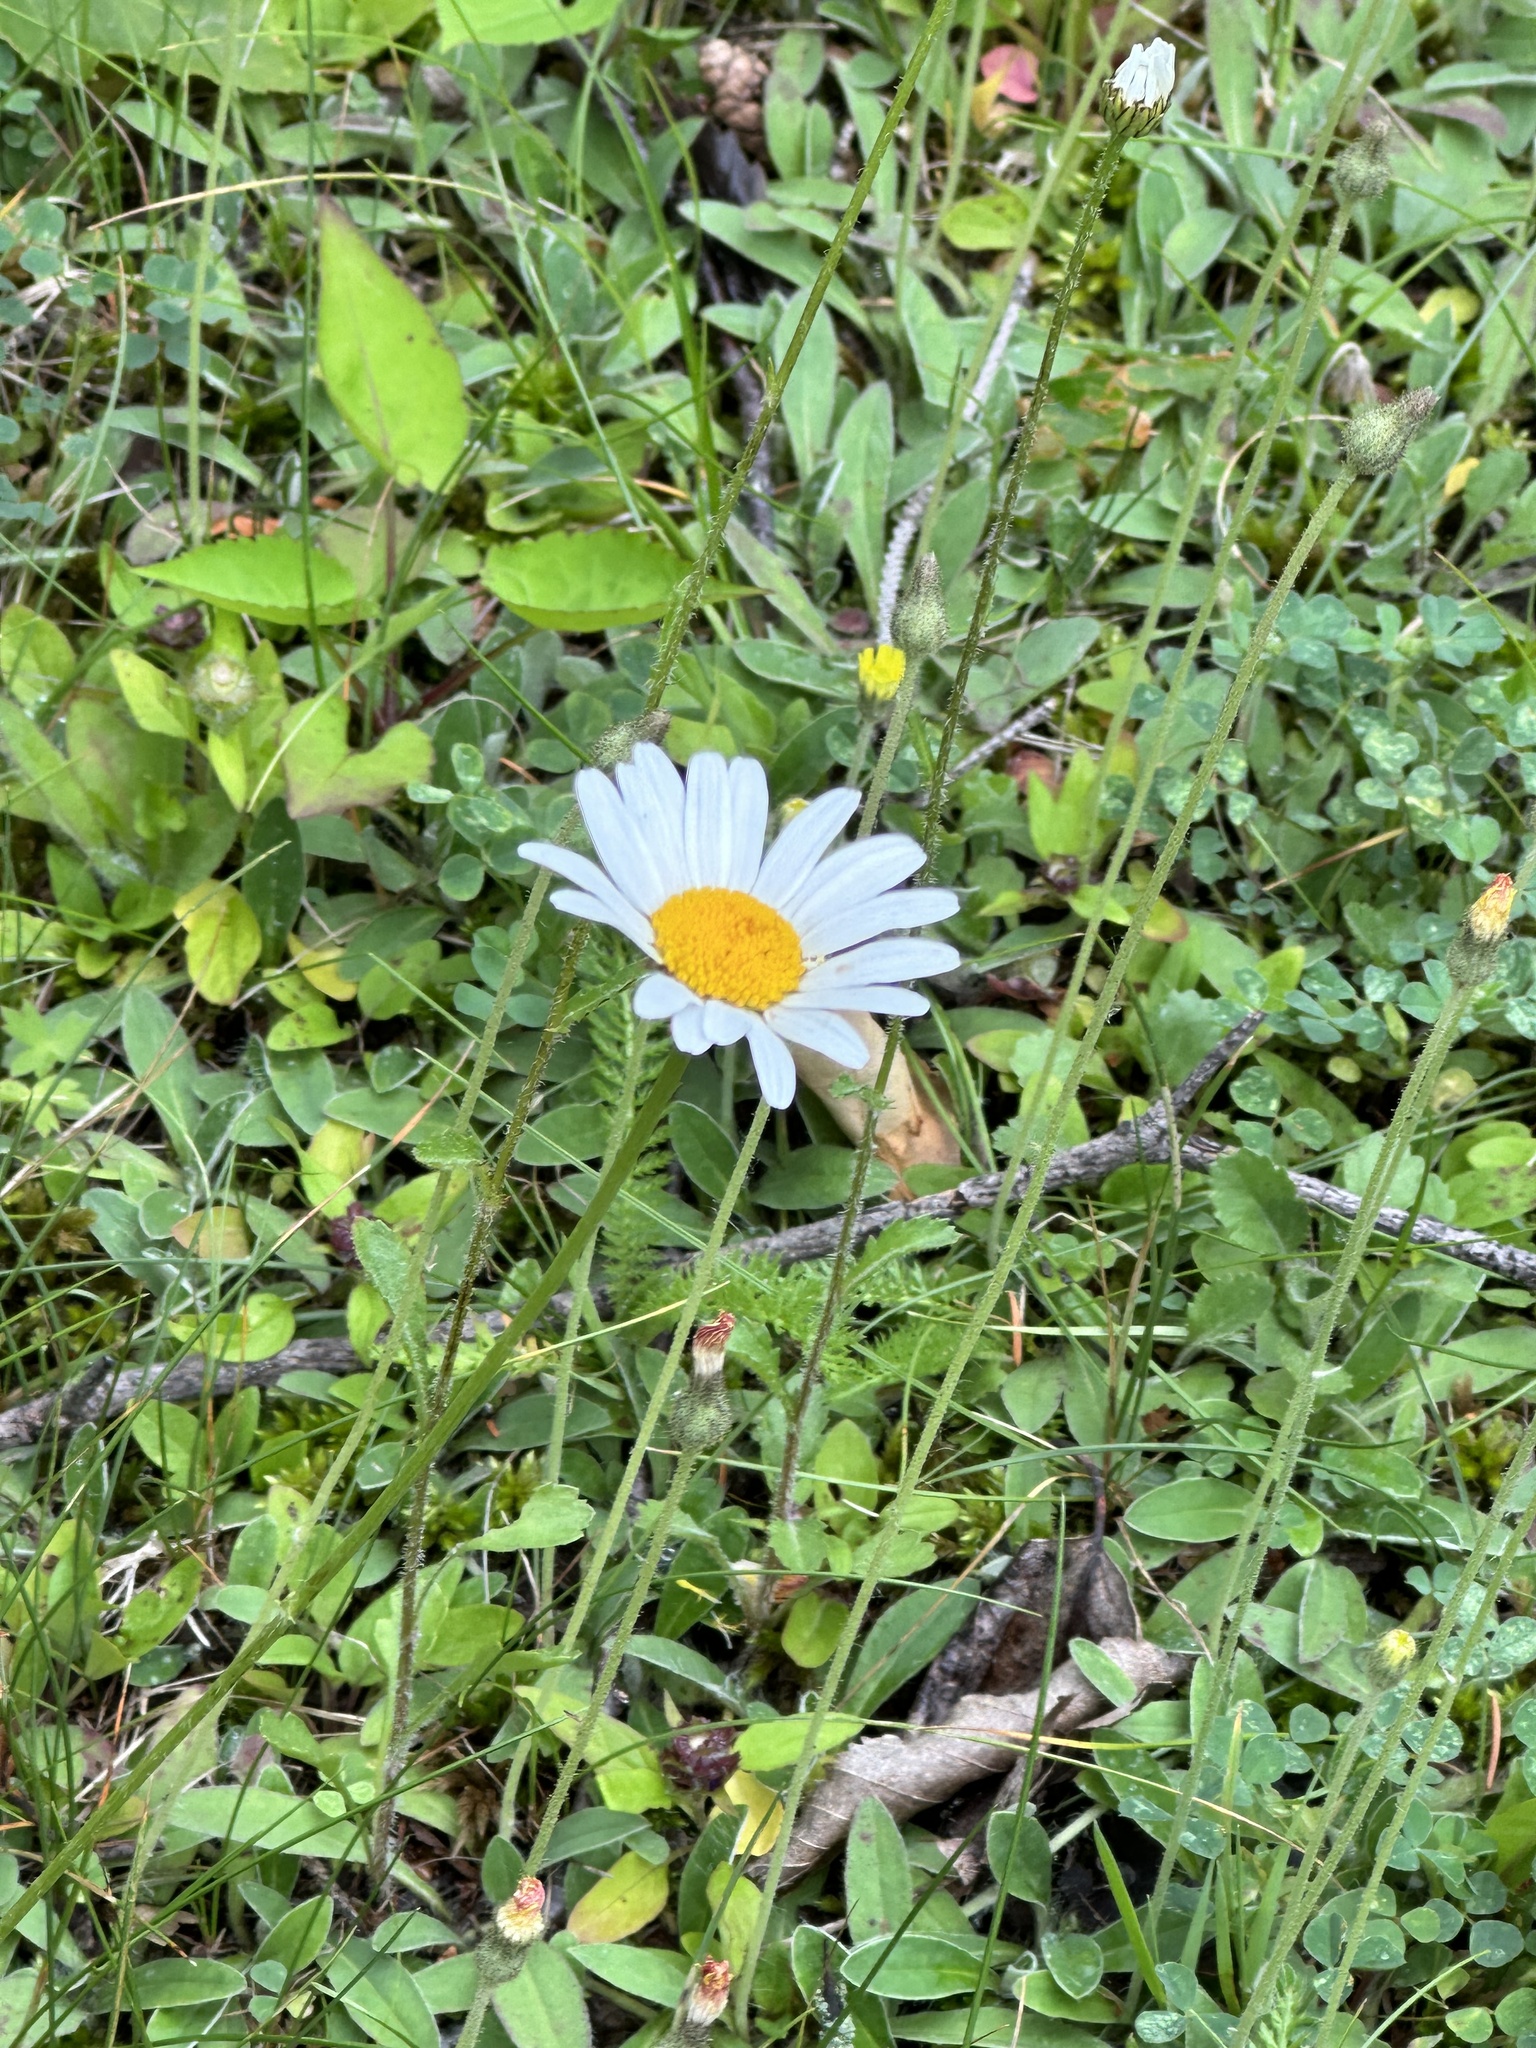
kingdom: Plantae
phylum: Tracheophyta
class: Magnoliopsida
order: Asterales
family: Asteraceae
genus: Leucanthemum
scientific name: Leucanthemum vulgare
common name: Oxeye daisy
